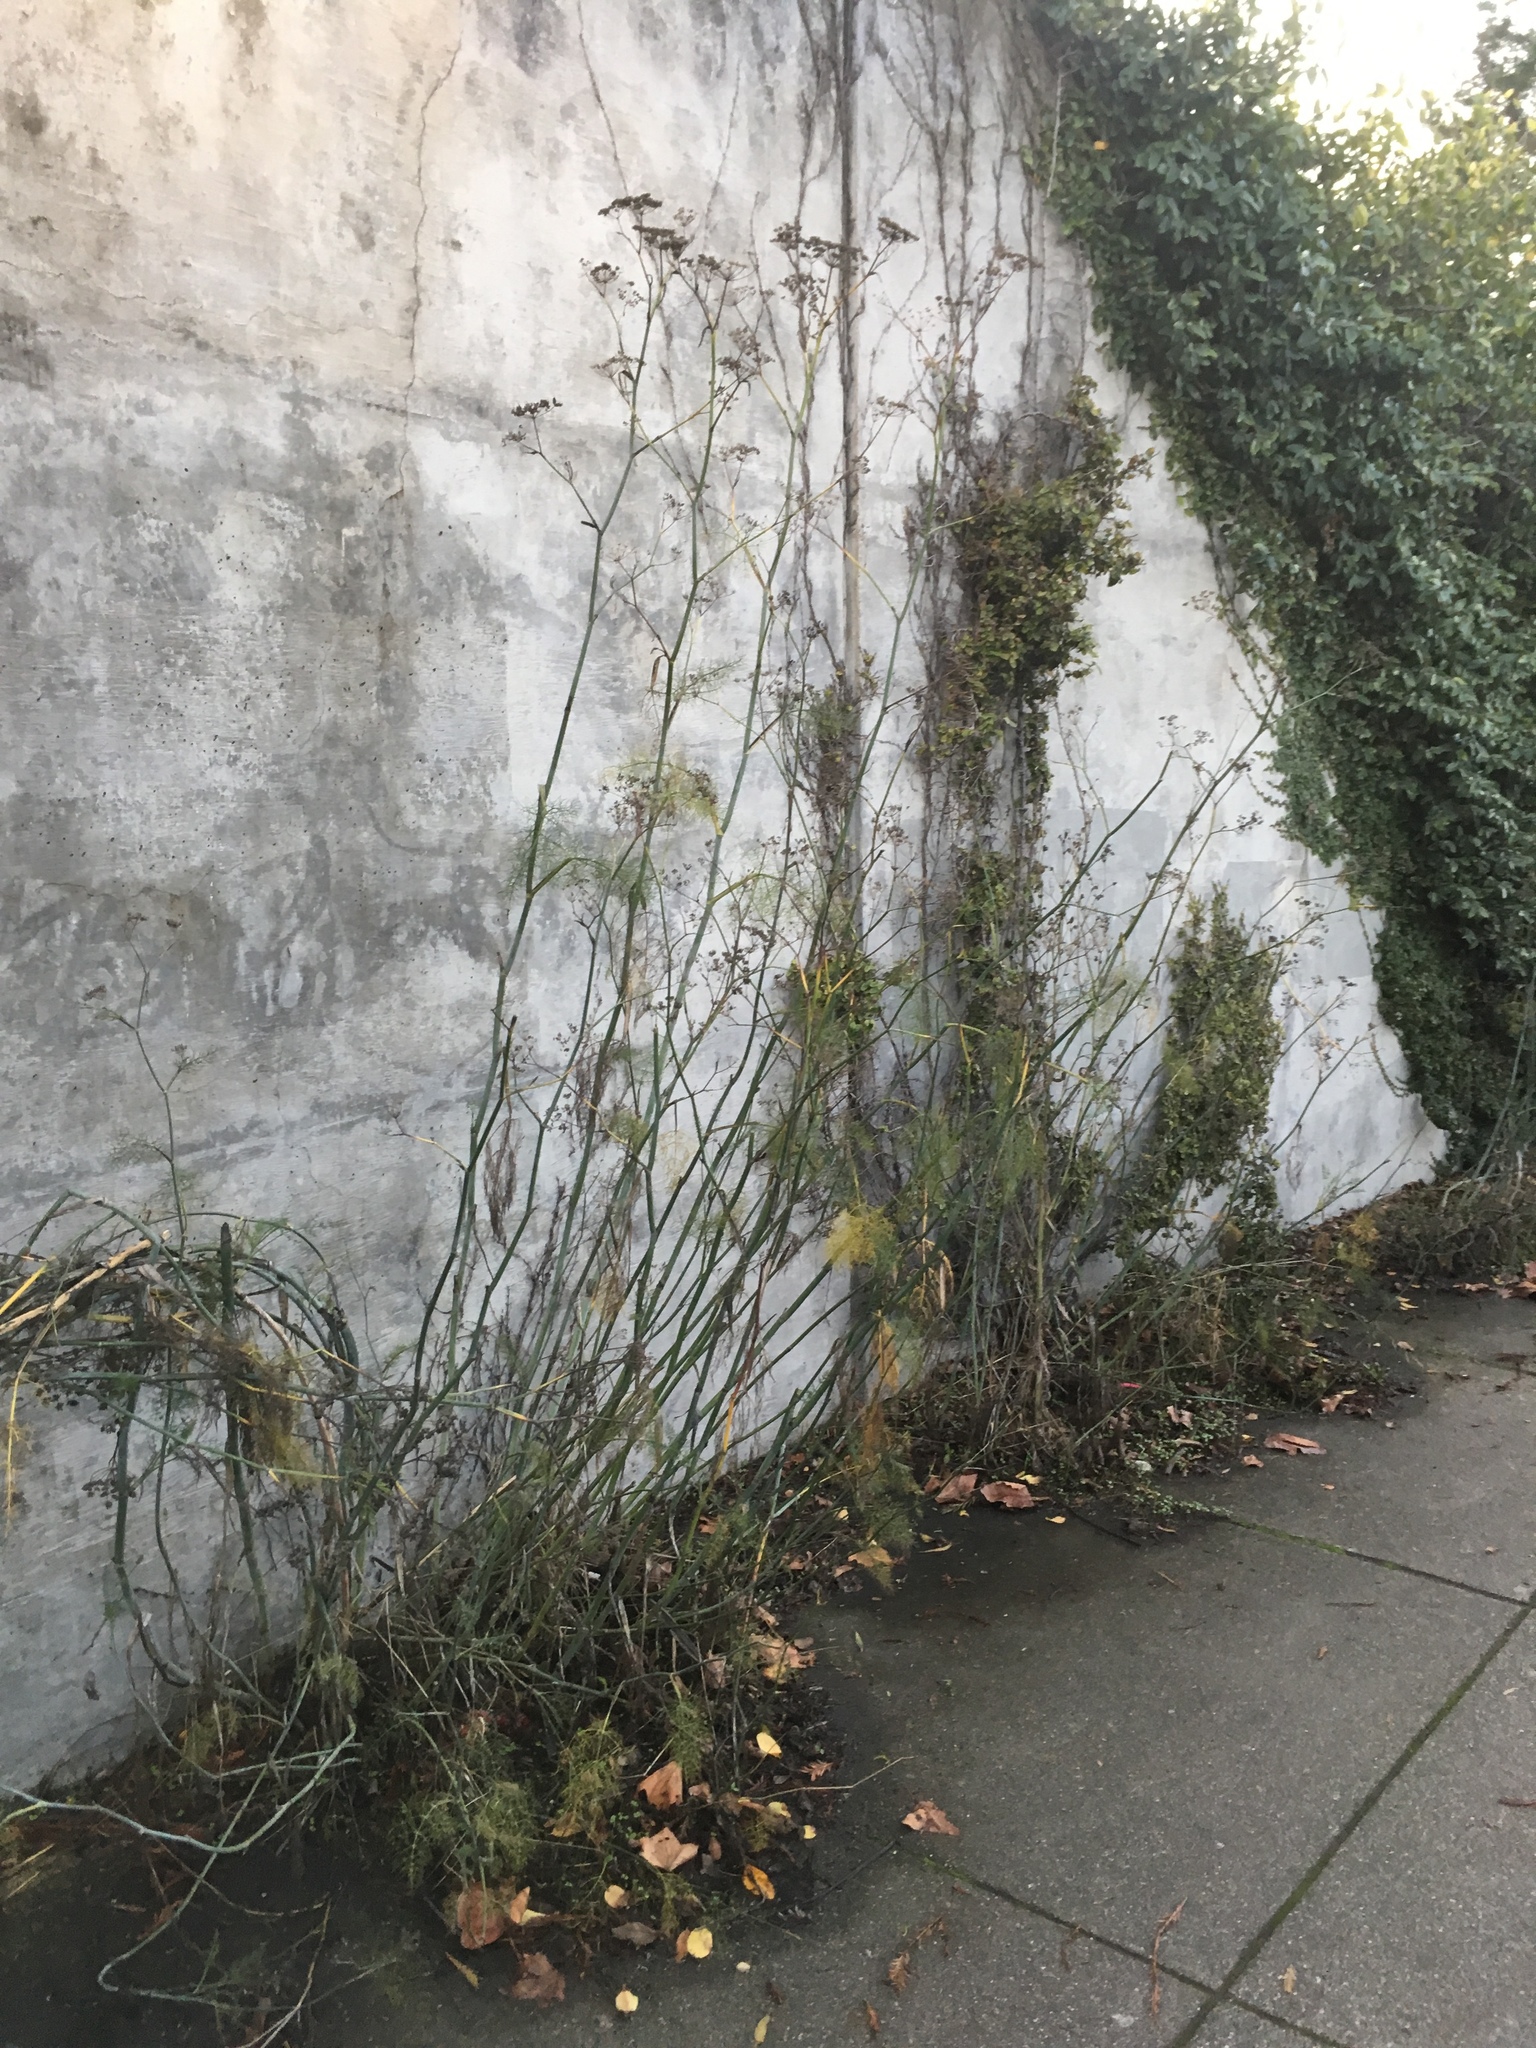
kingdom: Plantae
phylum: Tracheophyta
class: Magnoliopsida
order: Apiales
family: Apiaceae
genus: Foeniculum
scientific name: Foeniculum vulgare
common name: Fennel
